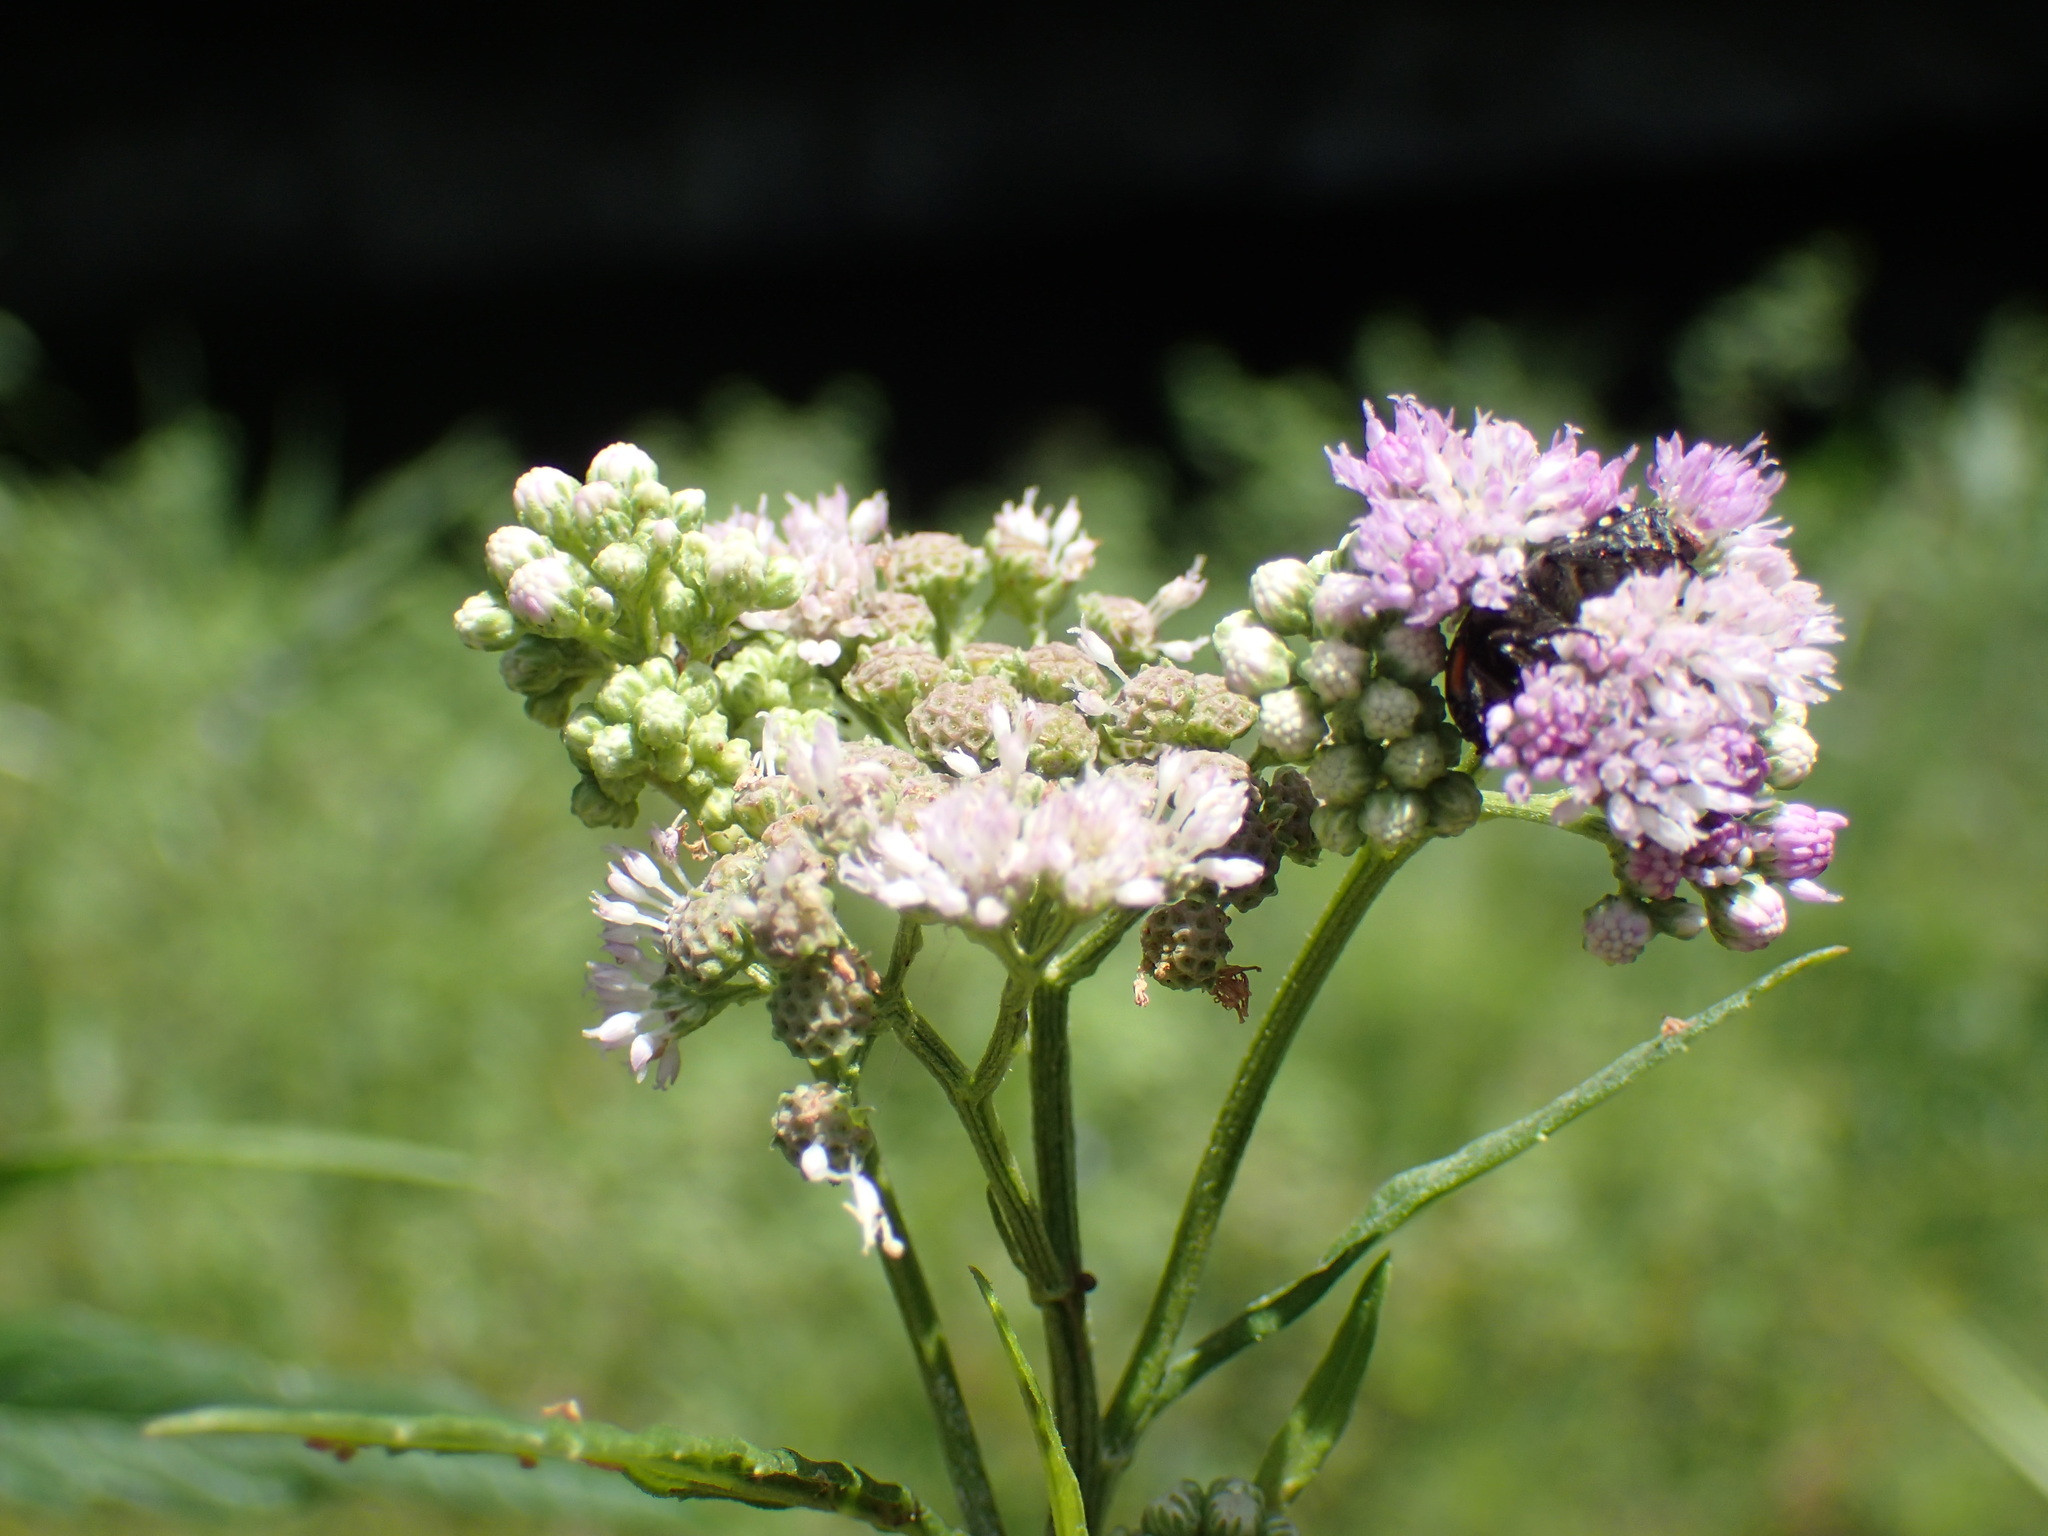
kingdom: Plantae
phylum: Tracheophyta
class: Magnoliopsida
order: Asterales
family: Asteraceae
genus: Ethulia
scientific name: Ethulia conyzoides
